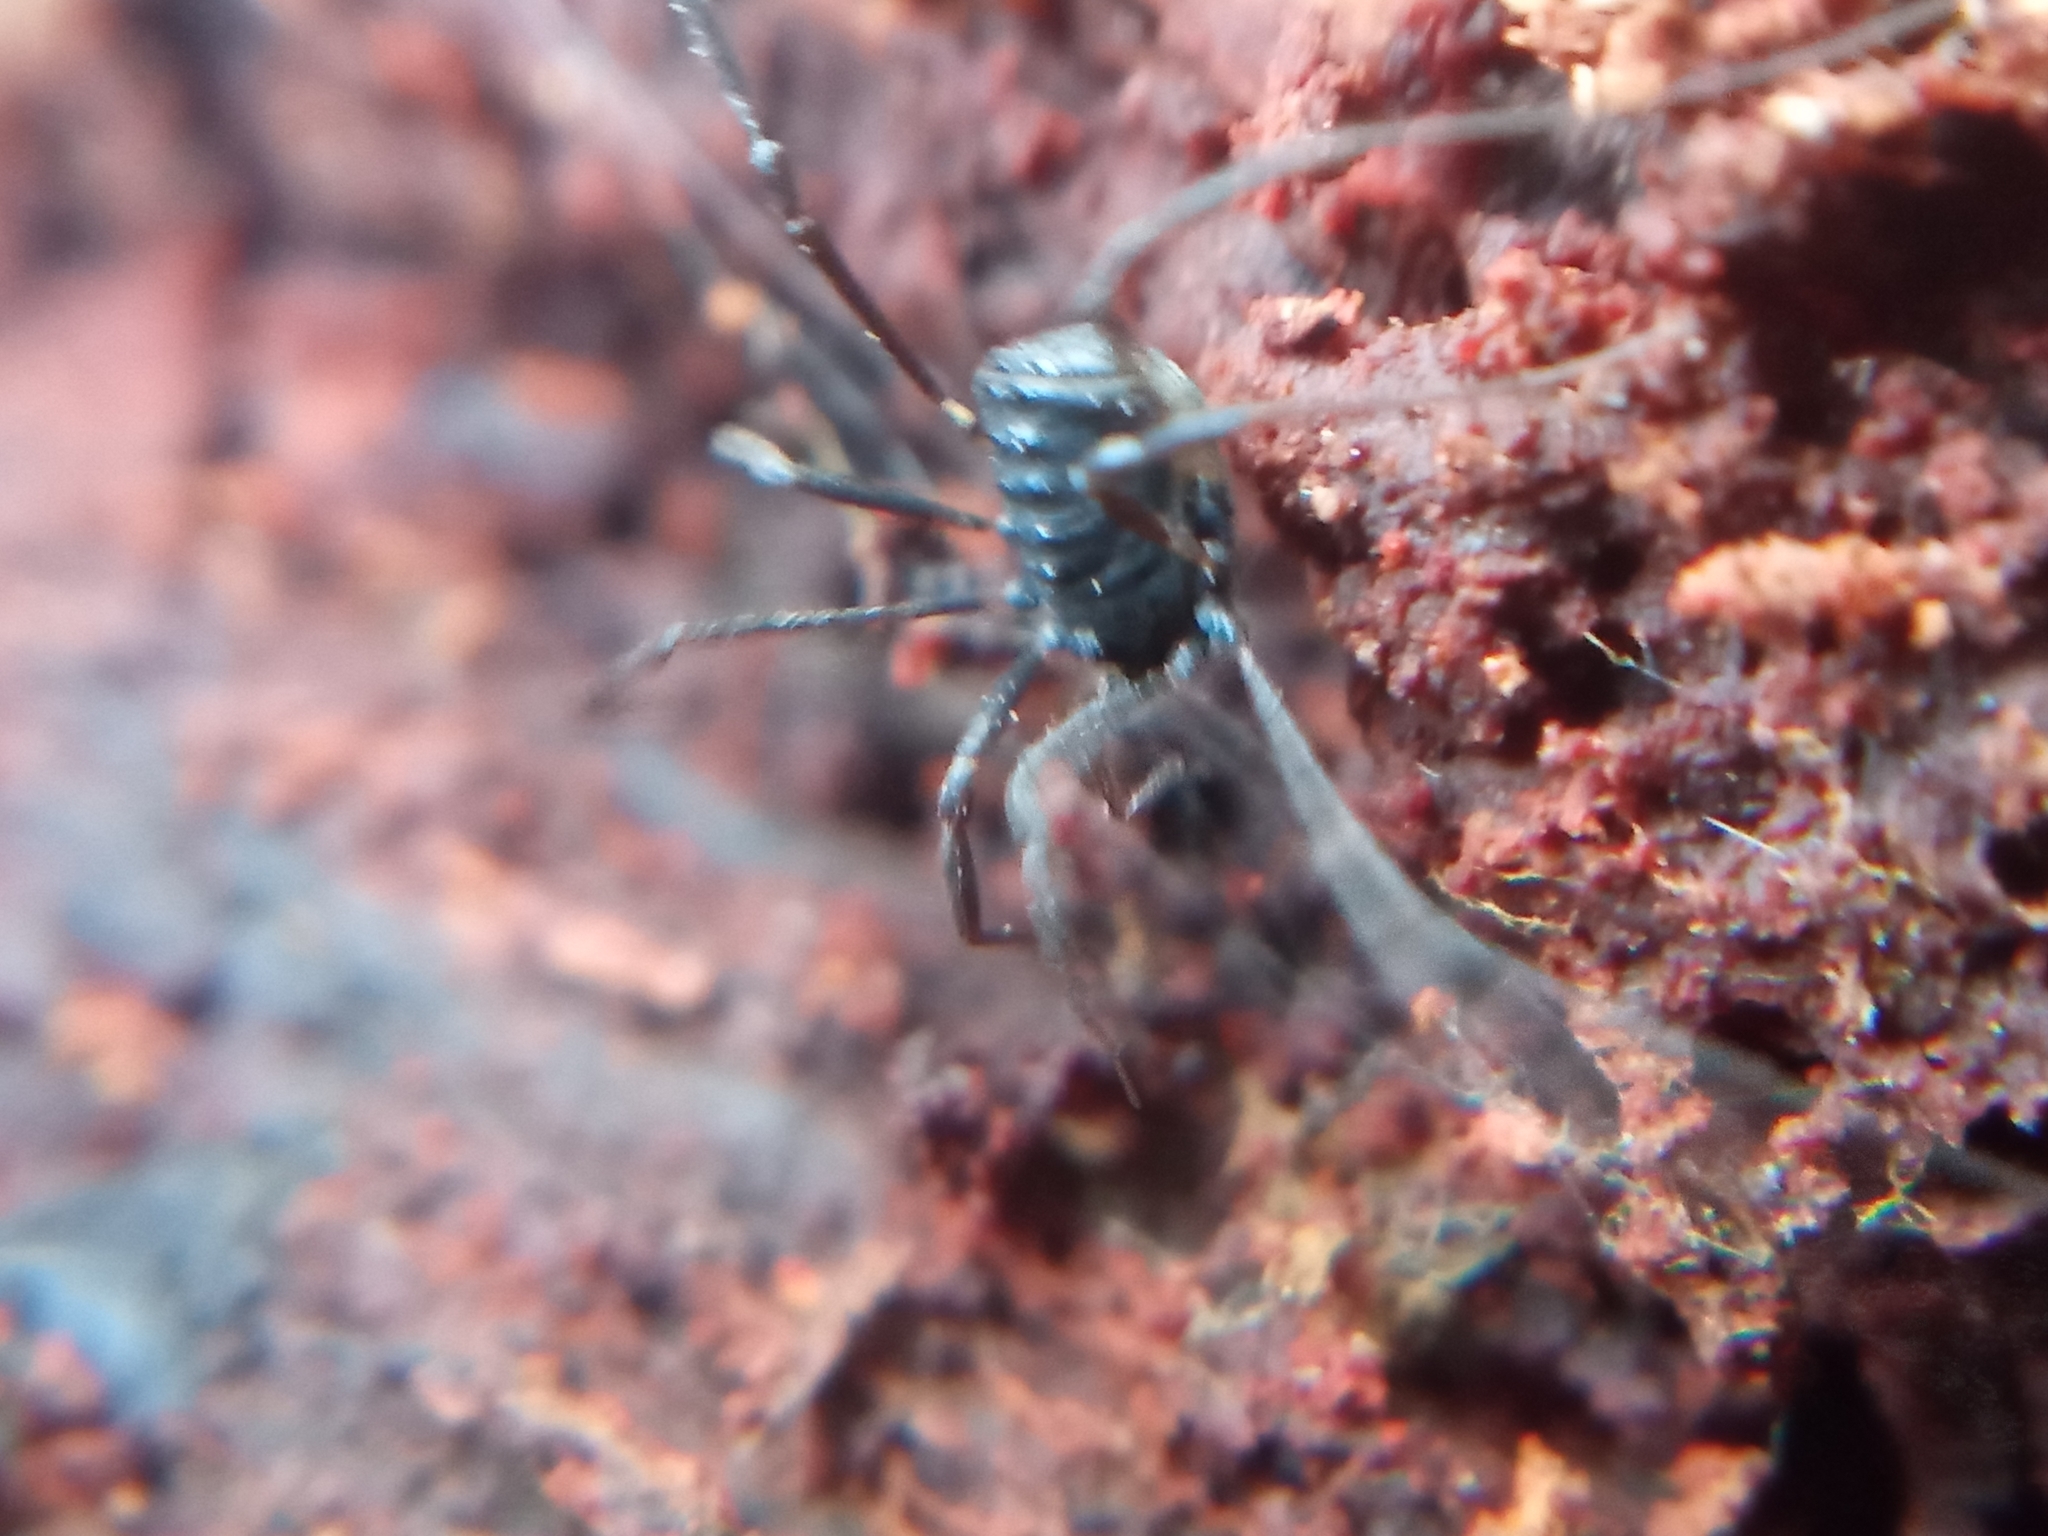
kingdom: Animalia
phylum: Arthropoda
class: Arachnida
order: Opiliones
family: Nemastomatidae
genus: Histricostoma
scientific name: Histricostoma dentipalpe
